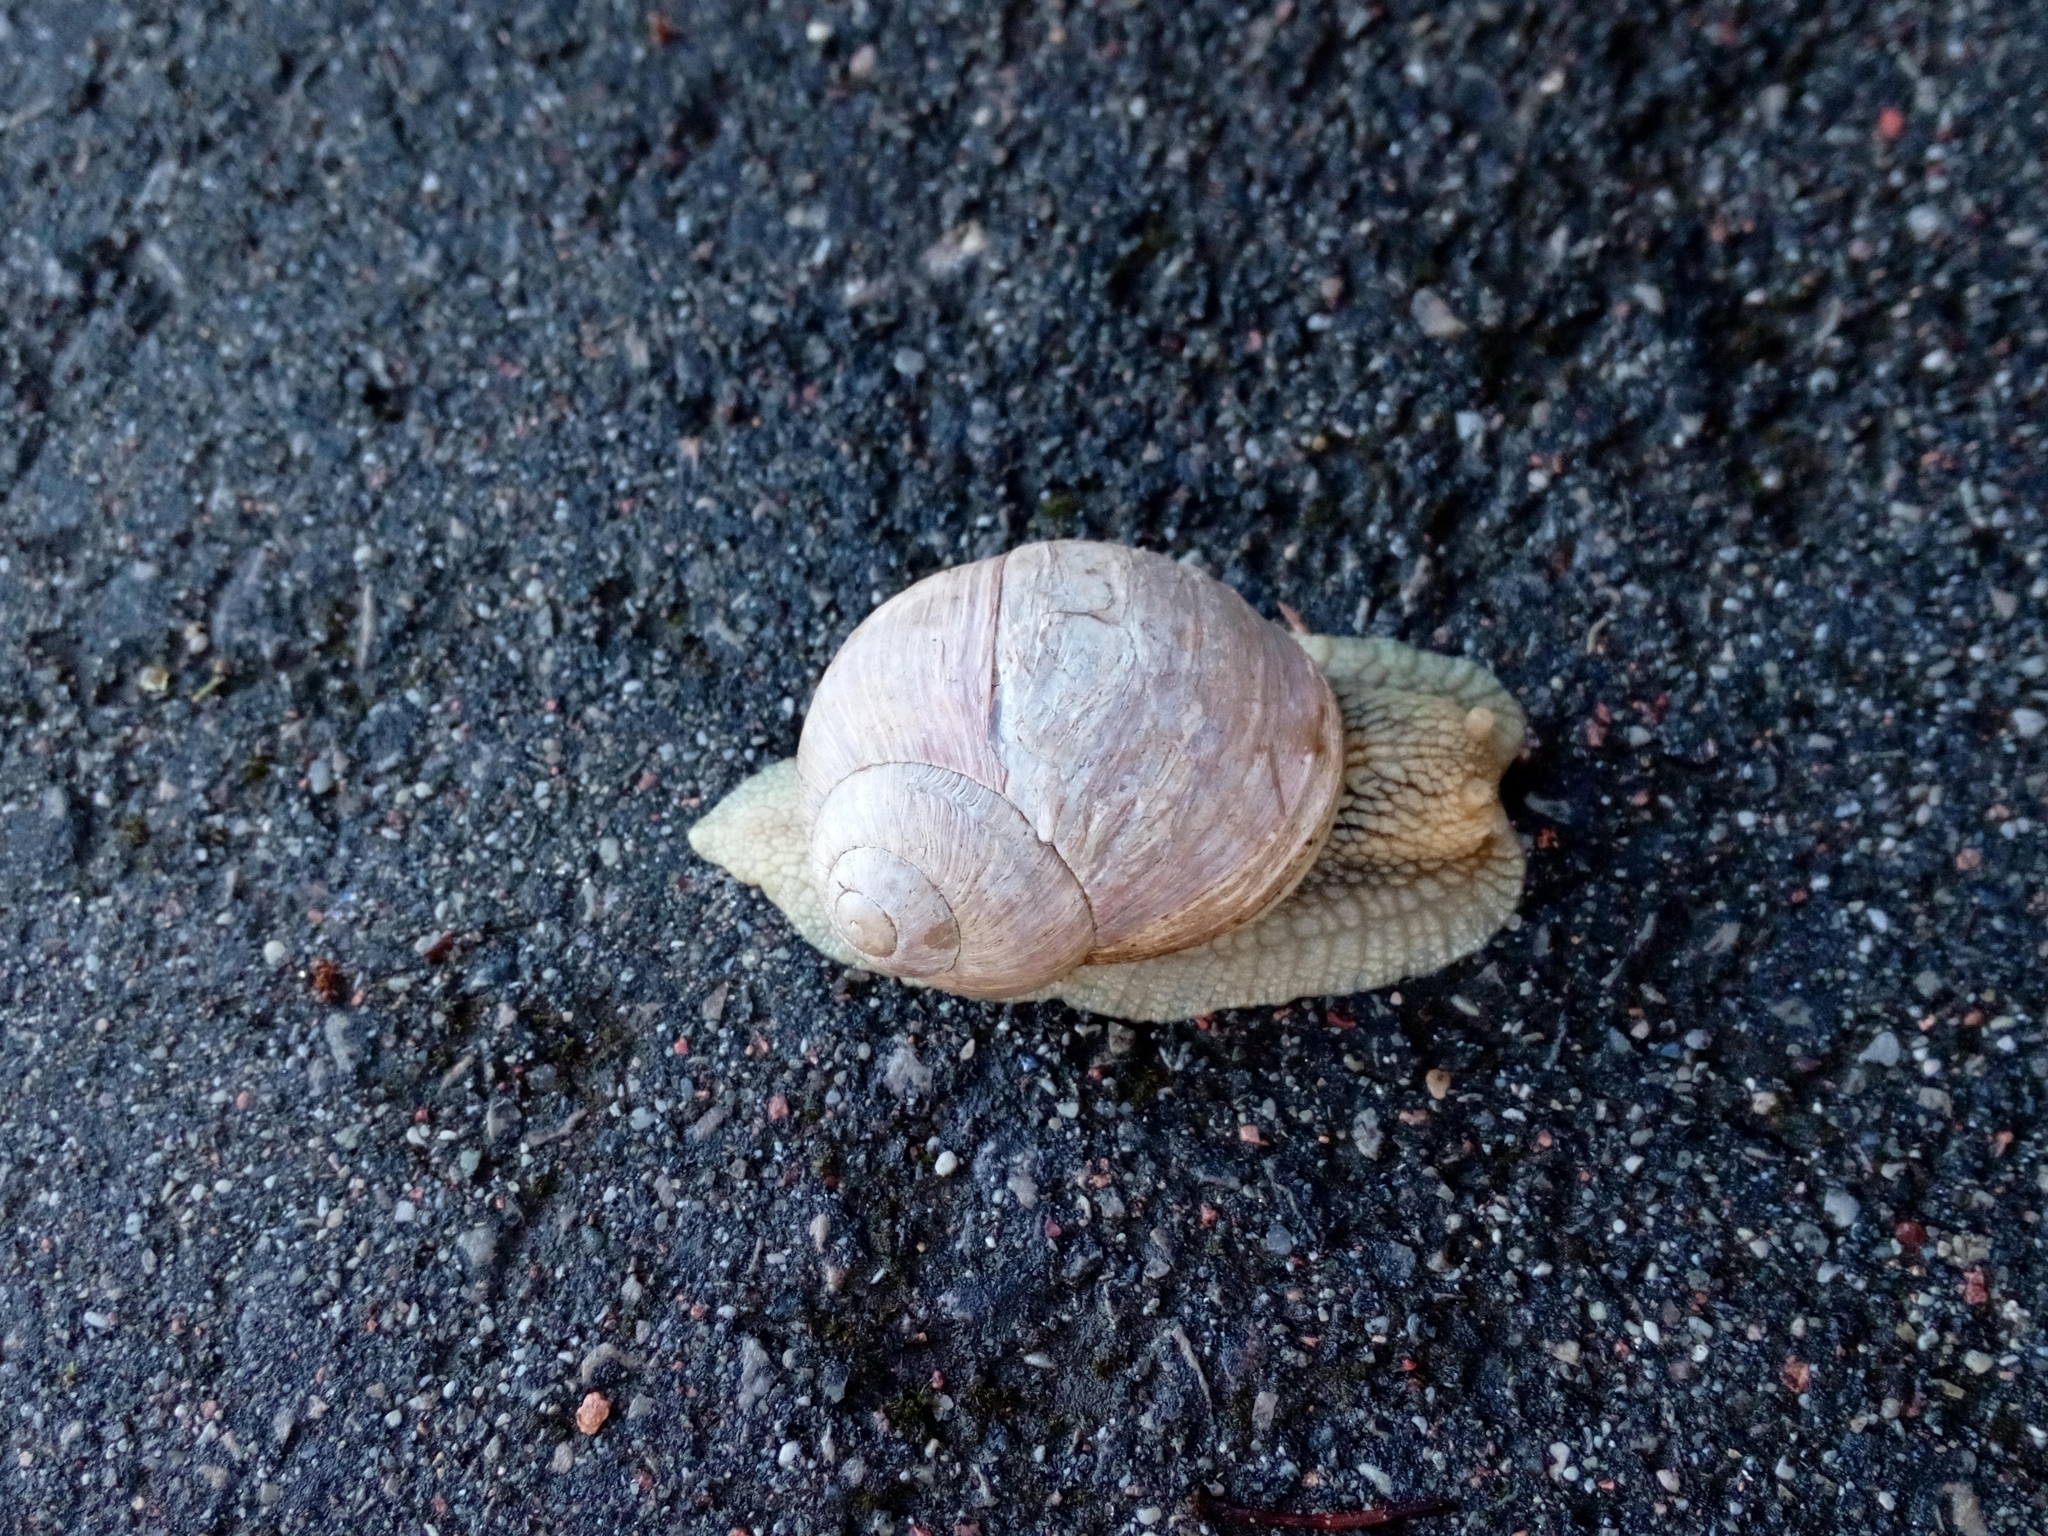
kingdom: Animalia
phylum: Mollusca
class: Gastropoda
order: Stylommatophora
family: Helicidae
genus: Helix
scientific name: Helix pomatia
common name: Roman snail
